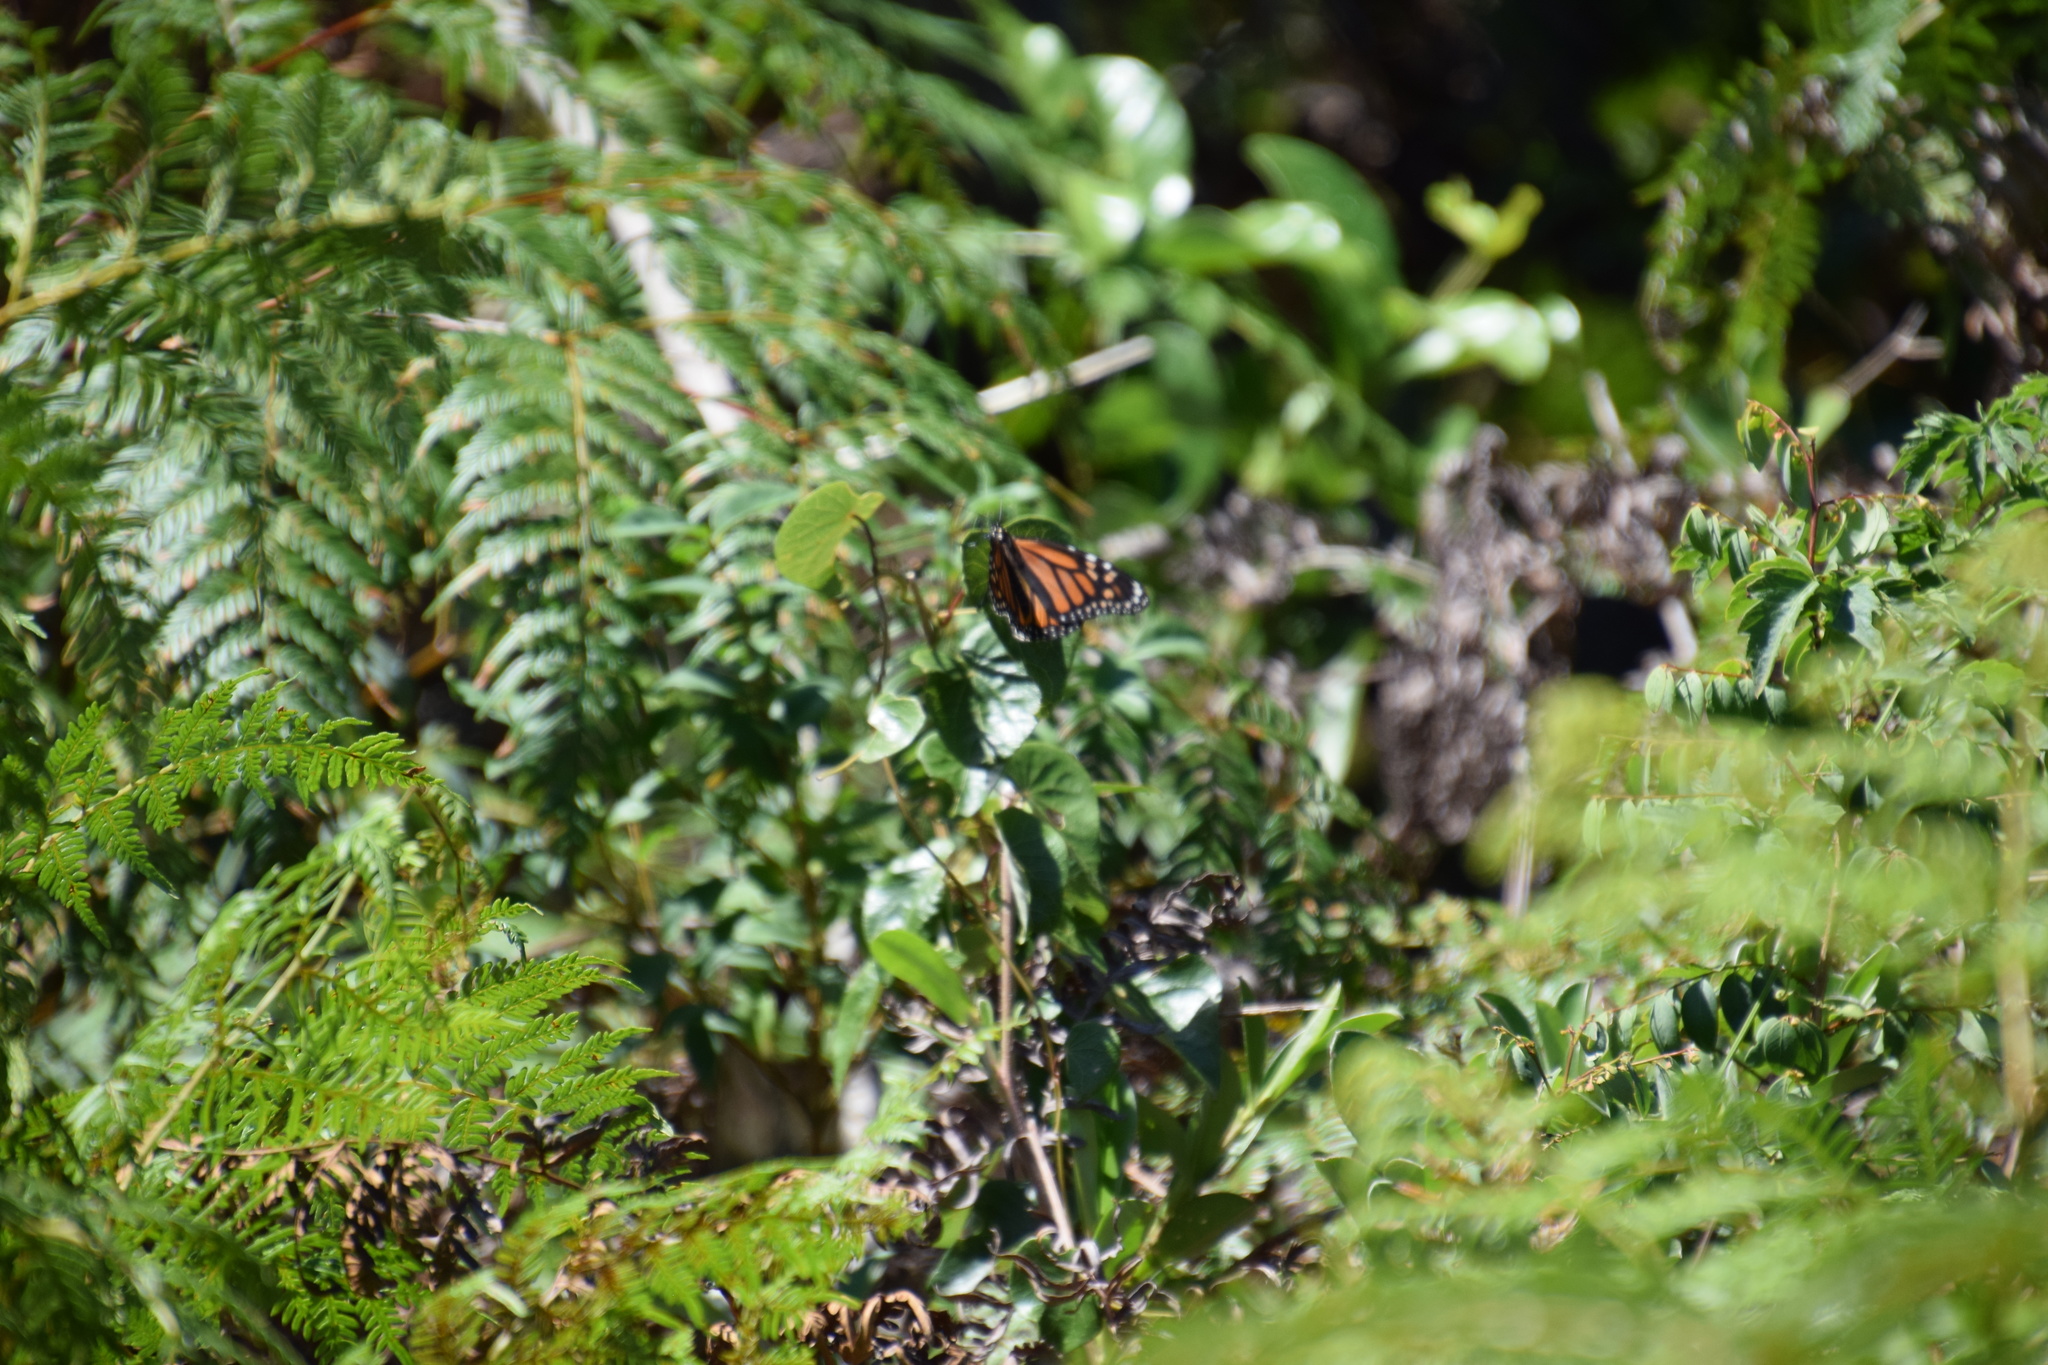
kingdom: Animalia
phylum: Arthropoda
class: Insecta
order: Lepidoptera
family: Nymphalidae
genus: Danaus
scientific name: Danaus plexippus
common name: Monarch
